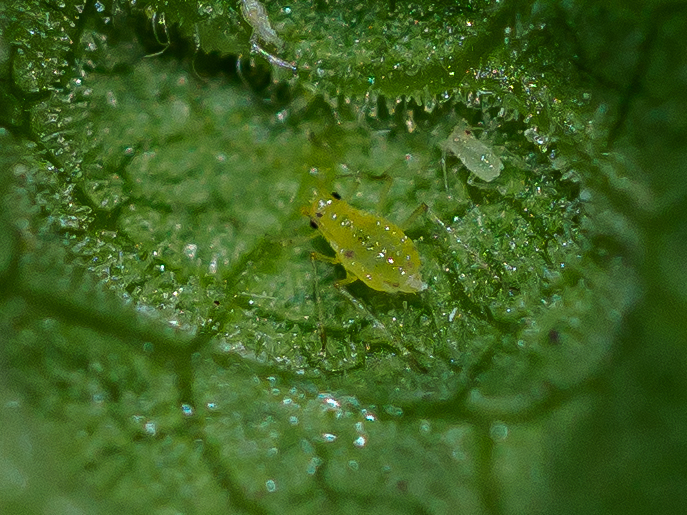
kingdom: Animalia
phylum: Arthropoda
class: Insecta
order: Hemiptera
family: Aphididae
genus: Cryptomyzus
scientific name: Cryptomyzus ribis
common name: Currant aphid
